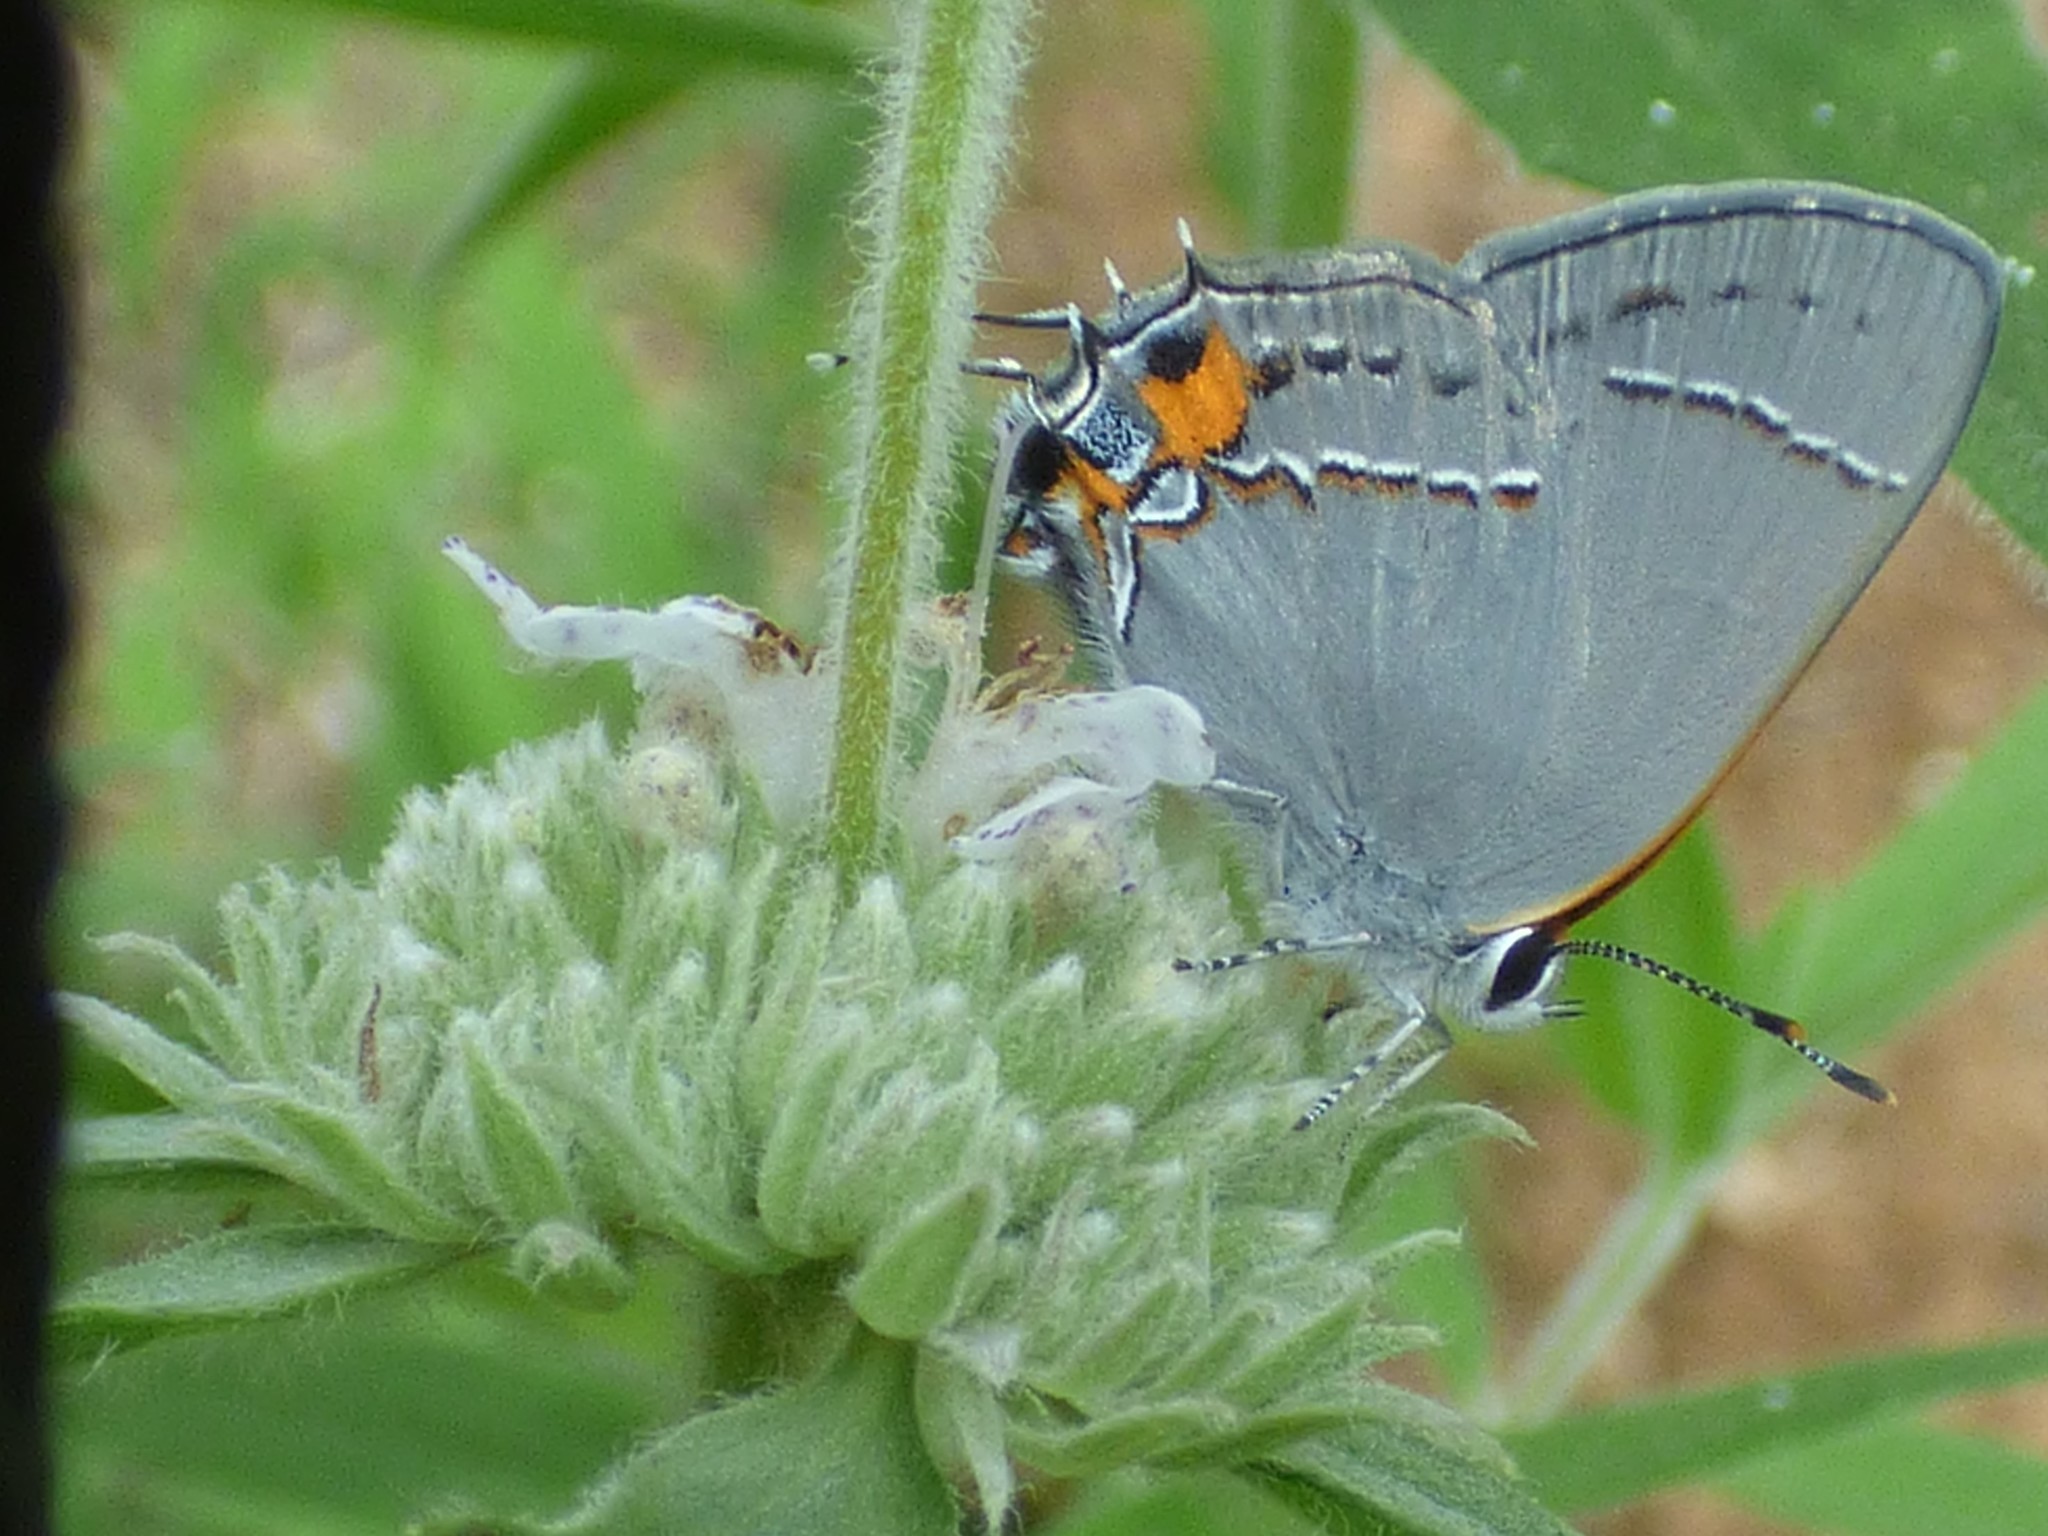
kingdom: Animalia
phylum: Arthropoda
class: Insecta
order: Lepidoptera
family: Lycaenidae
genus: Strymon
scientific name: Strymon melinus
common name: Gray hairstreak
